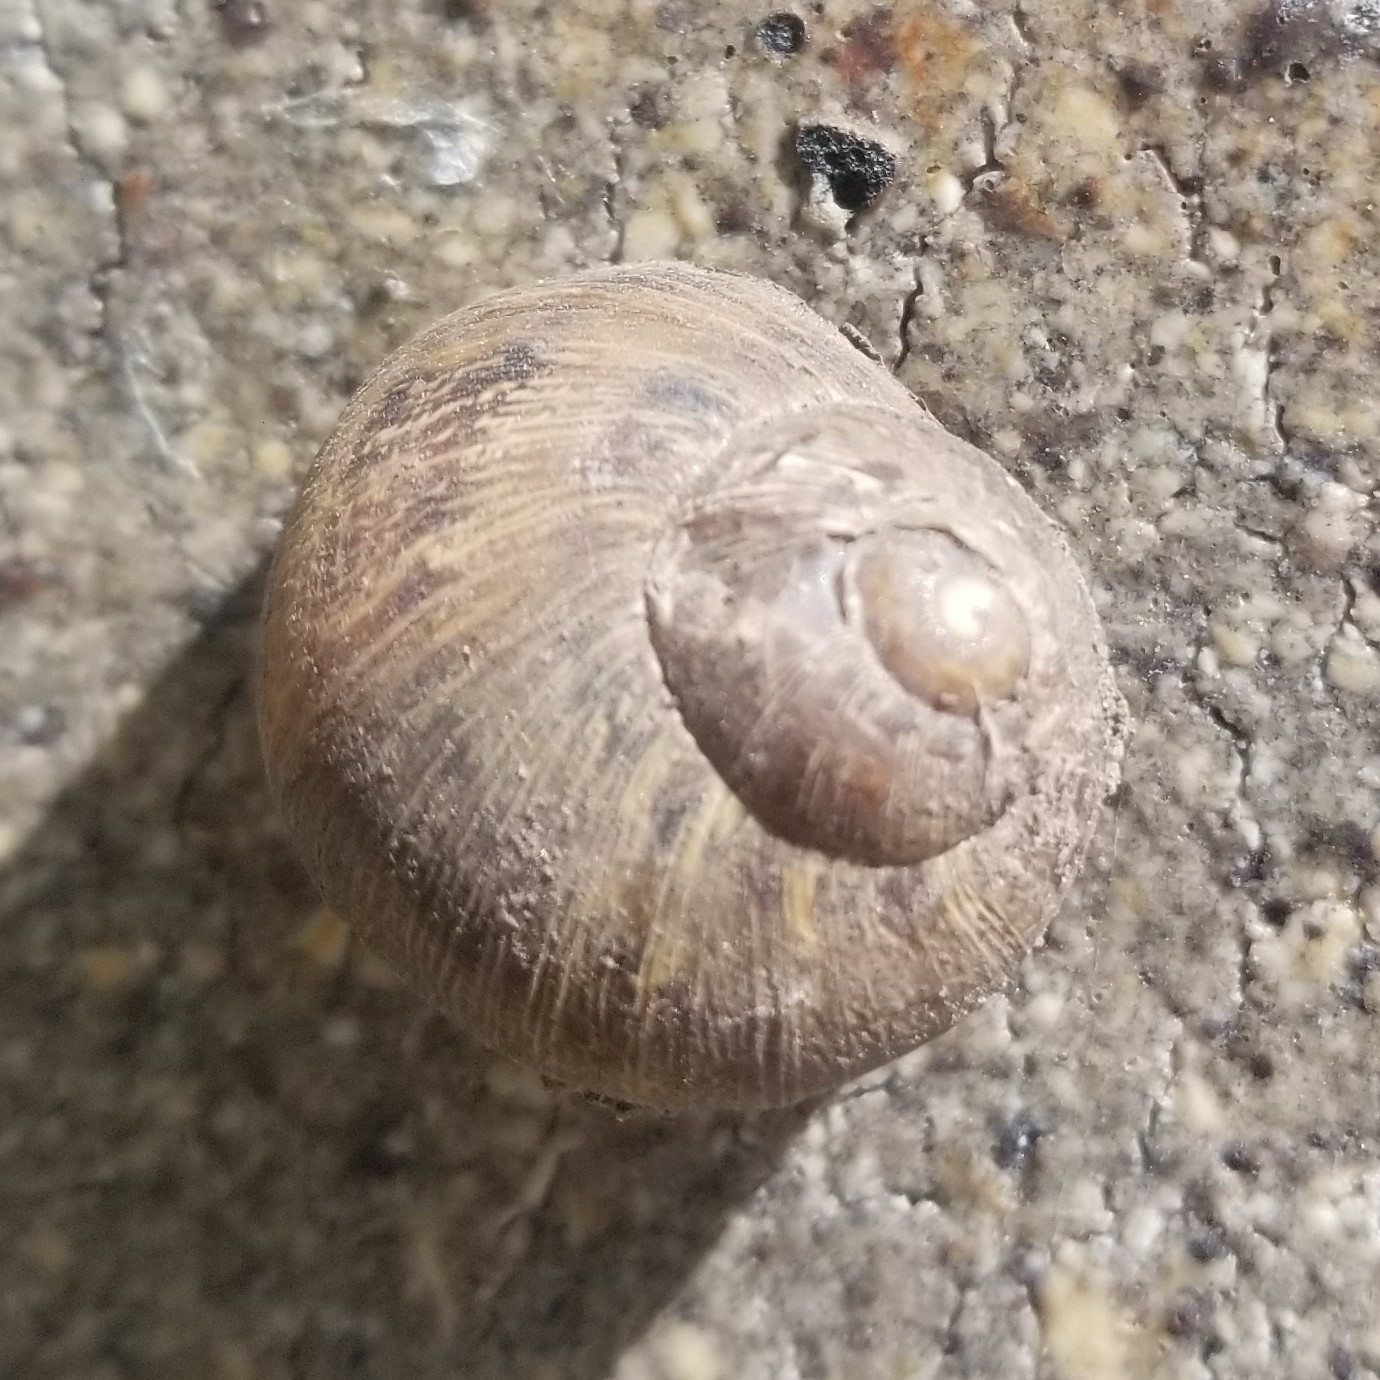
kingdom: Animalia
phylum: Mollusca
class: Gastropoda
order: Stylommatophora
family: Helicidae
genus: Cornu
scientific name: Cornu aspersum
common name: Brown garden snail
